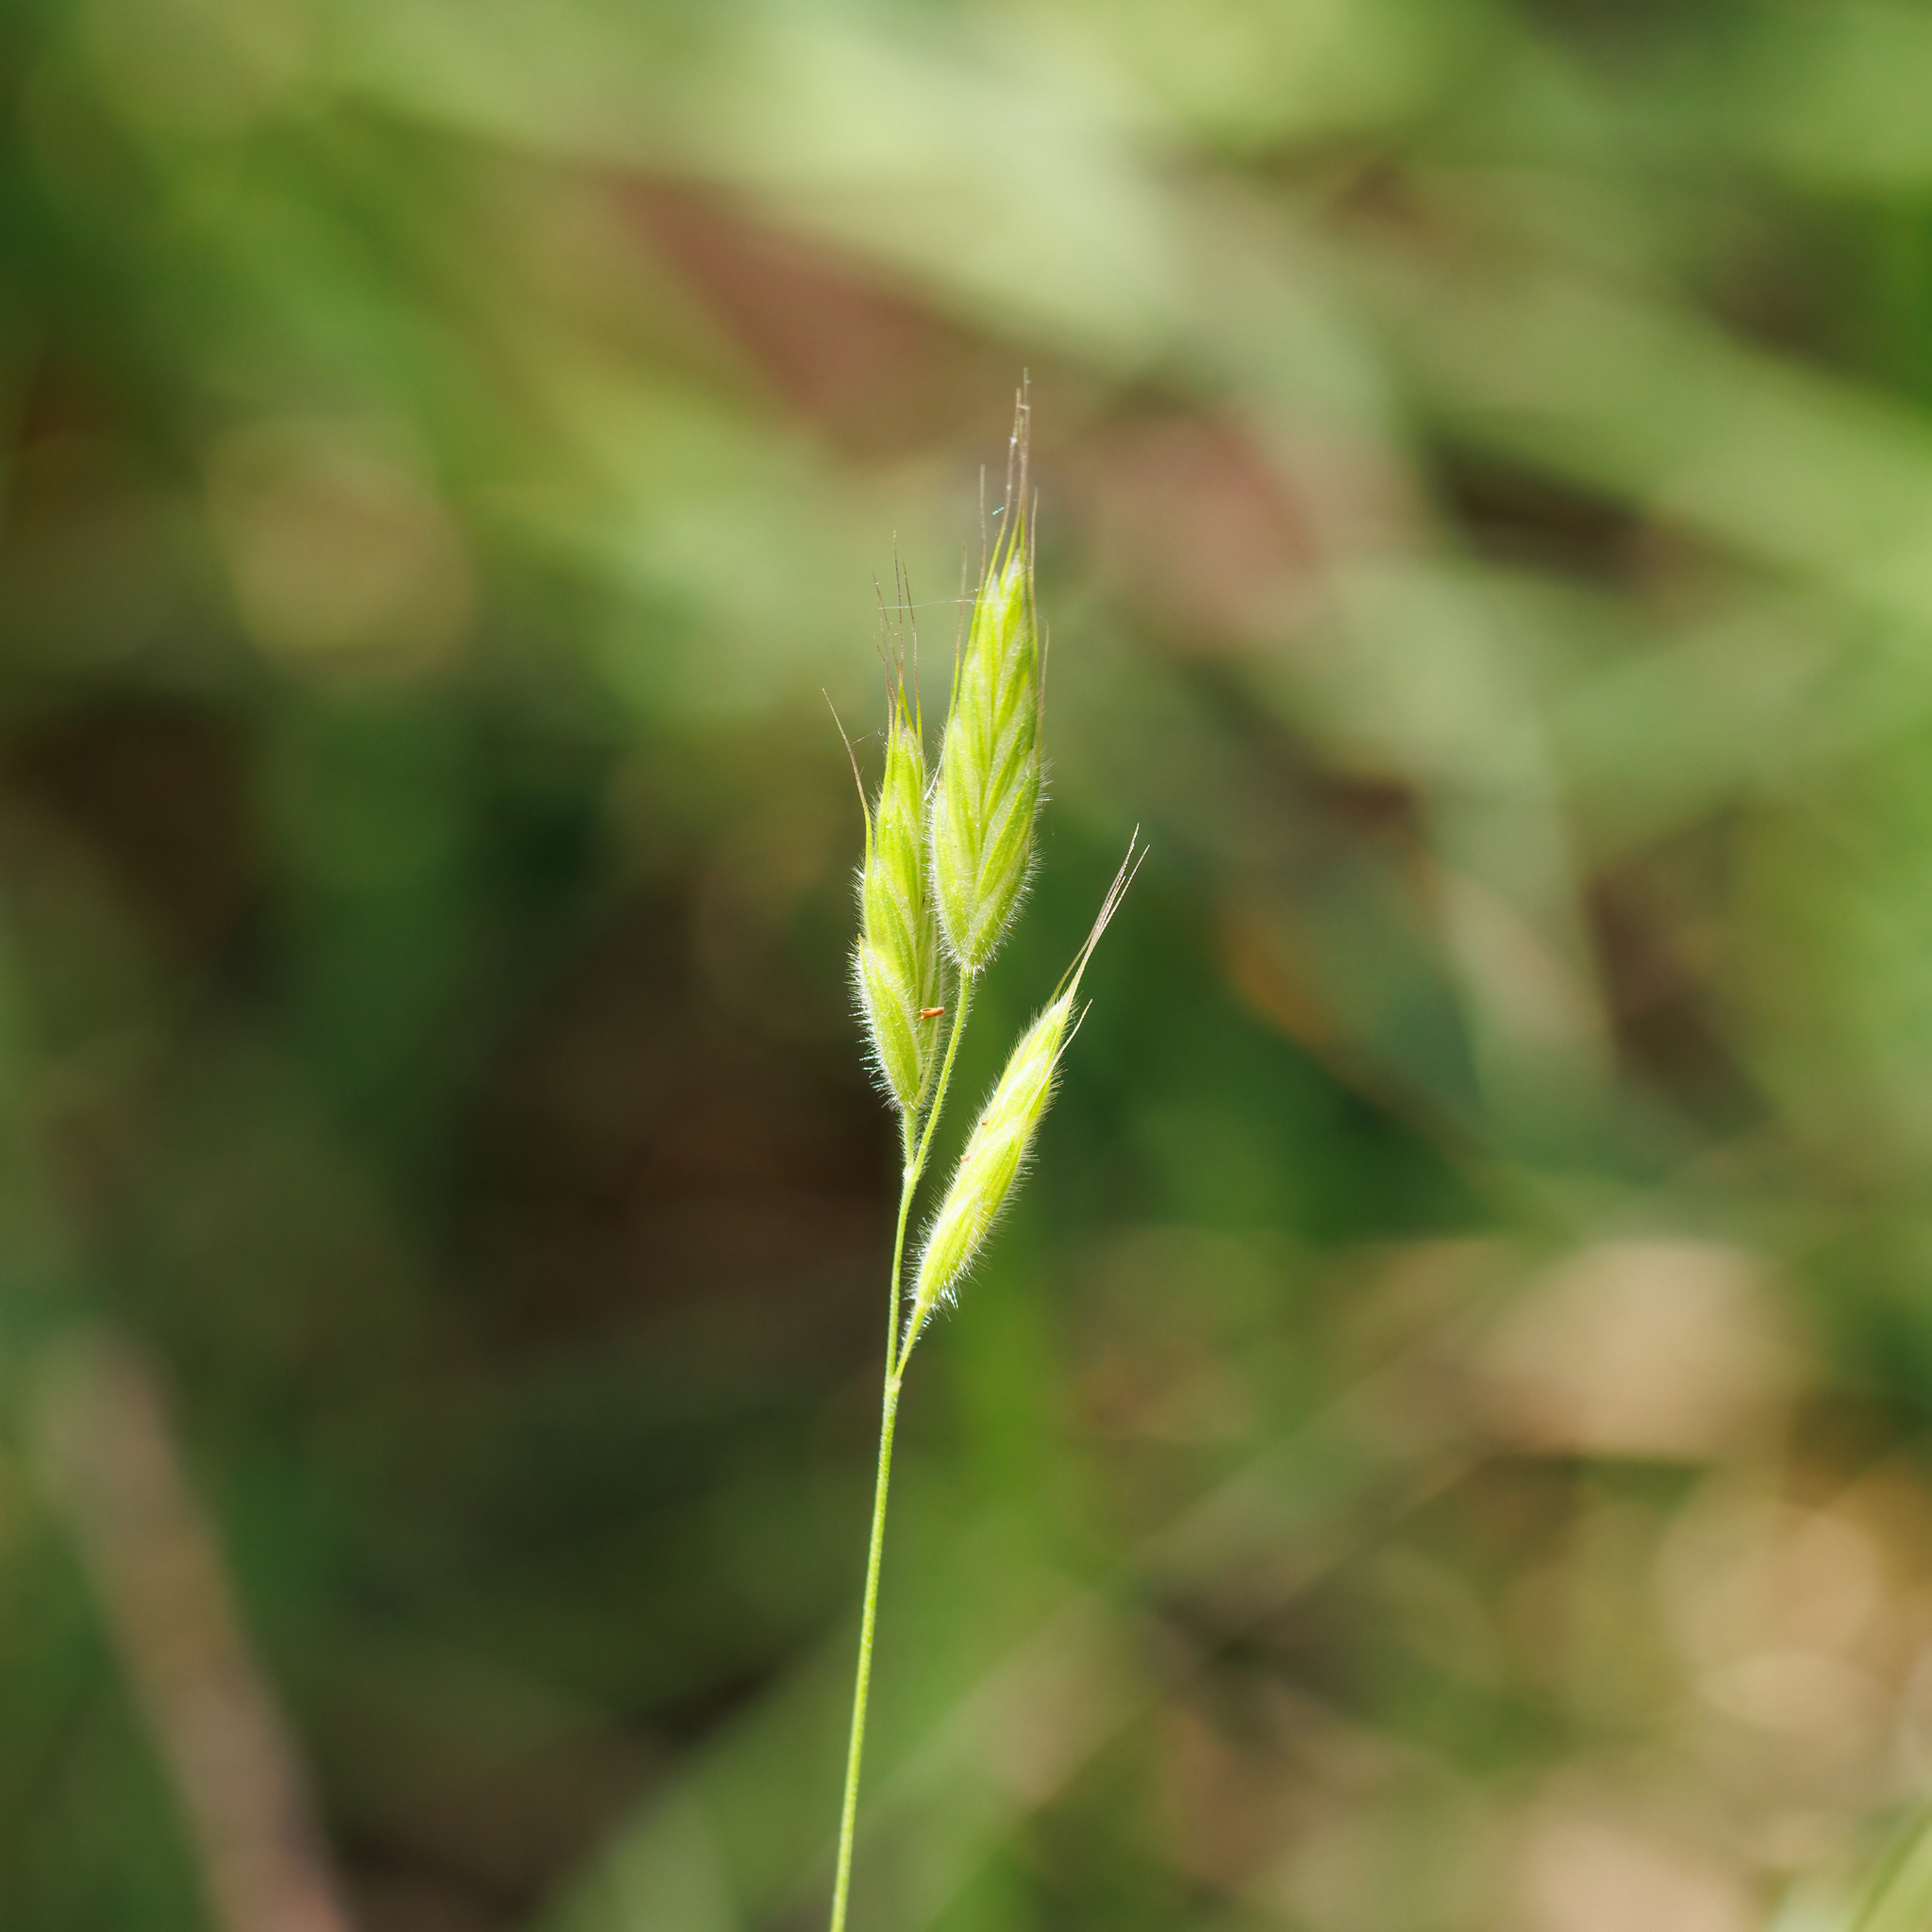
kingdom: Plantae
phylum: Tracheophyta
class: Liliopsida
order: Poales
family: Poaceae
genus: Bromus
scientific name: Bromus hordeaceus
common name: Soft brome
